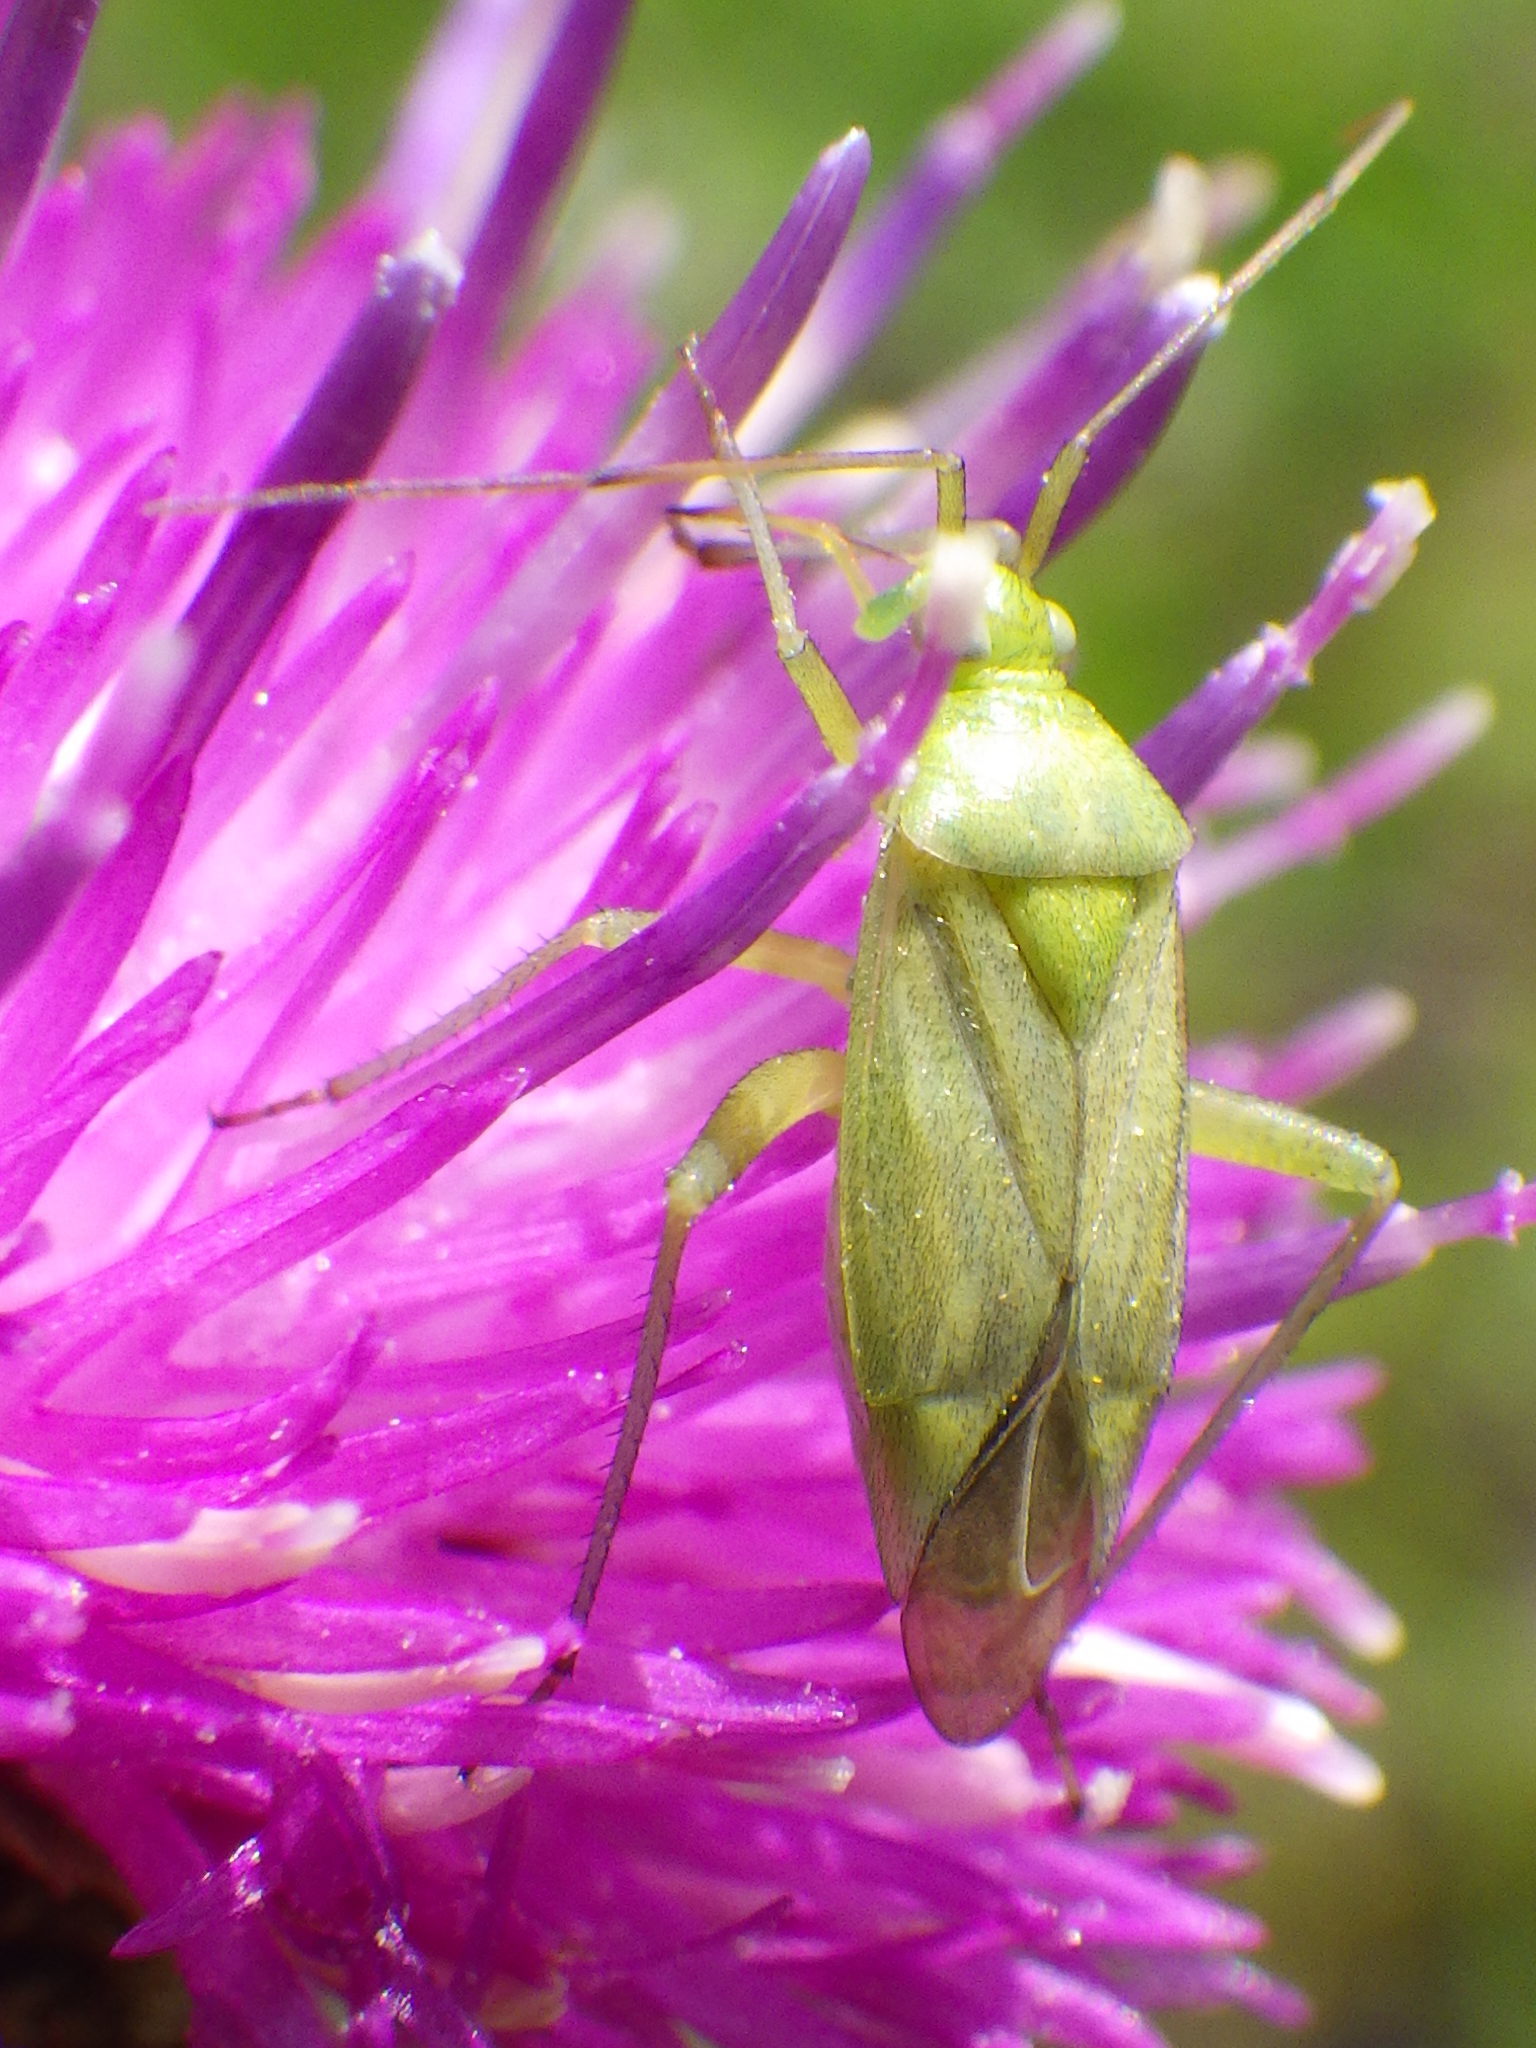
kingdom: Animalia
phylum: Arthropoda
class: Insecta
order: Hemiptera
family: Miridae
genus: Closterotomus
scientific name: Closterotomus norvegicus
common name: Plant bug
